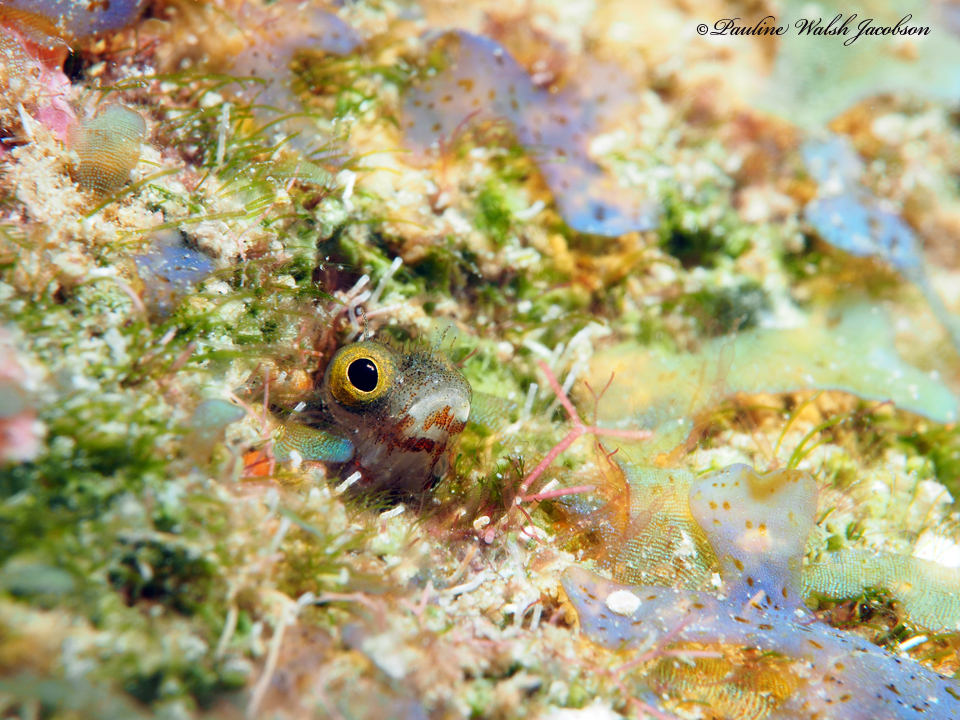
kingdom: Animalia
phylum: Chordata
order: Perciformes
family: Chaenopsidae
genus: Acanthemblemaria
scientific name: Acanthemblemaria spinosa
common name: Spinyhead blenny
